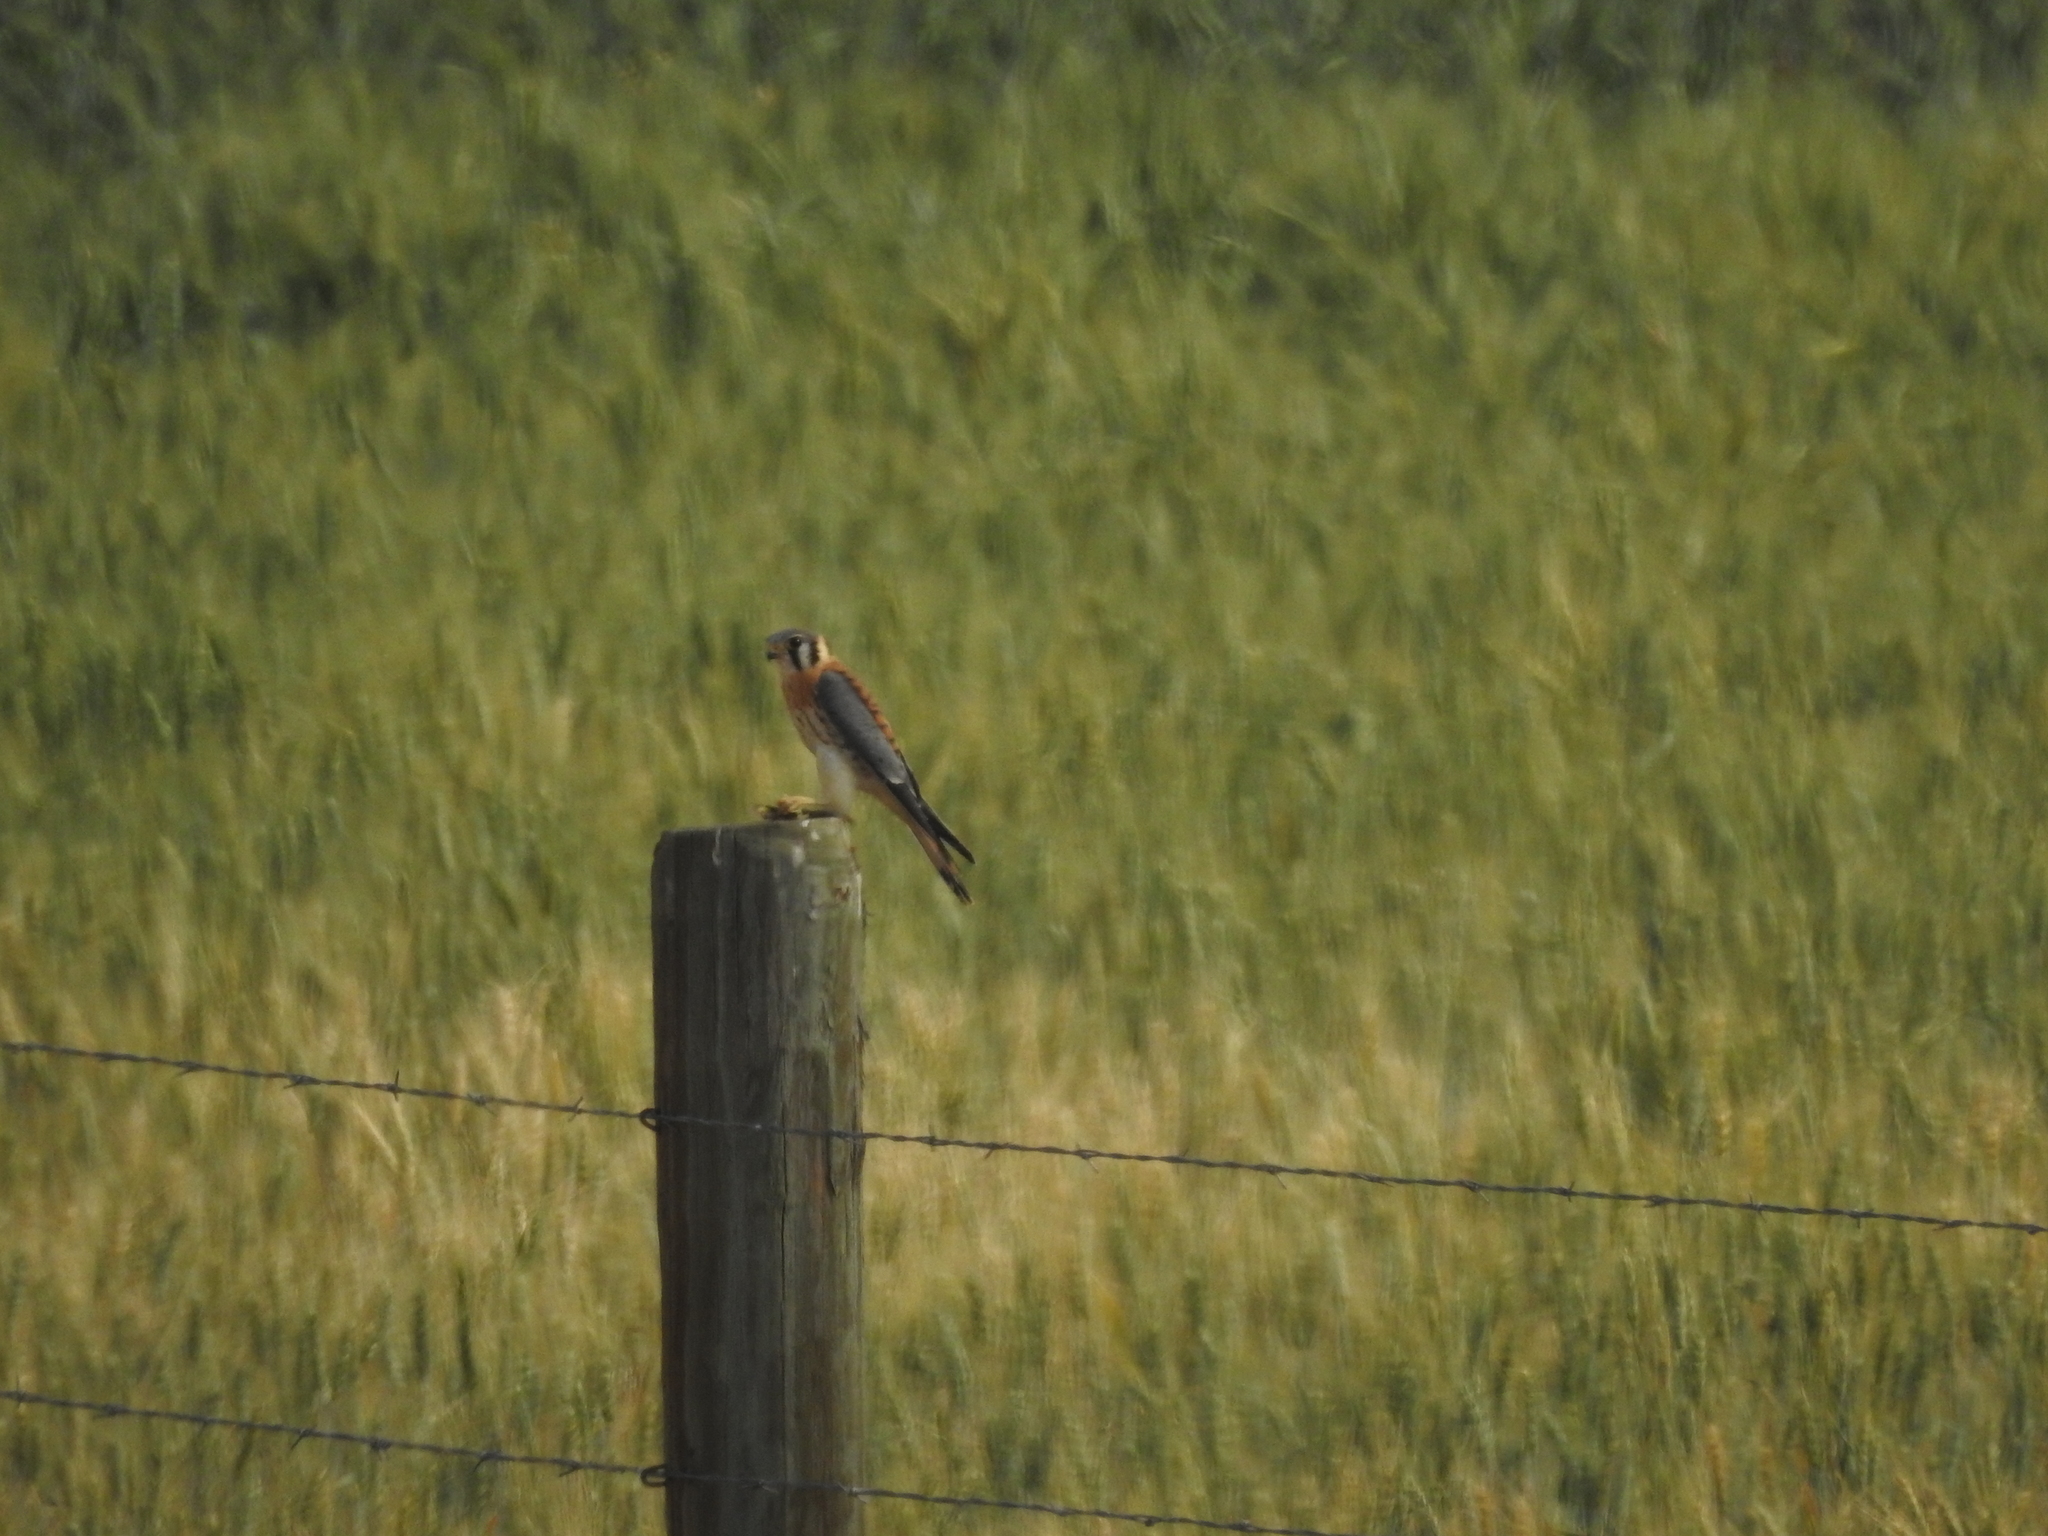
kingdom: Animalia
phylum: Chordata
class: Aves
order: Falconiformes
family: Falconidae
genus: Falco
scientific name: Falco sparverius
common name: American kestrel
